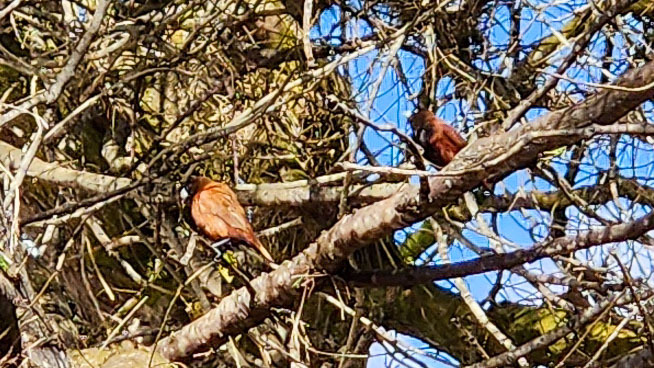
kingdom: Animalia
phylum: Chordata
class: Aves
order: Passeriformes
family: Estrildidae
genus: Lonchura
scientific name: Lonchura atricapilla
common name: Chestnut munia
